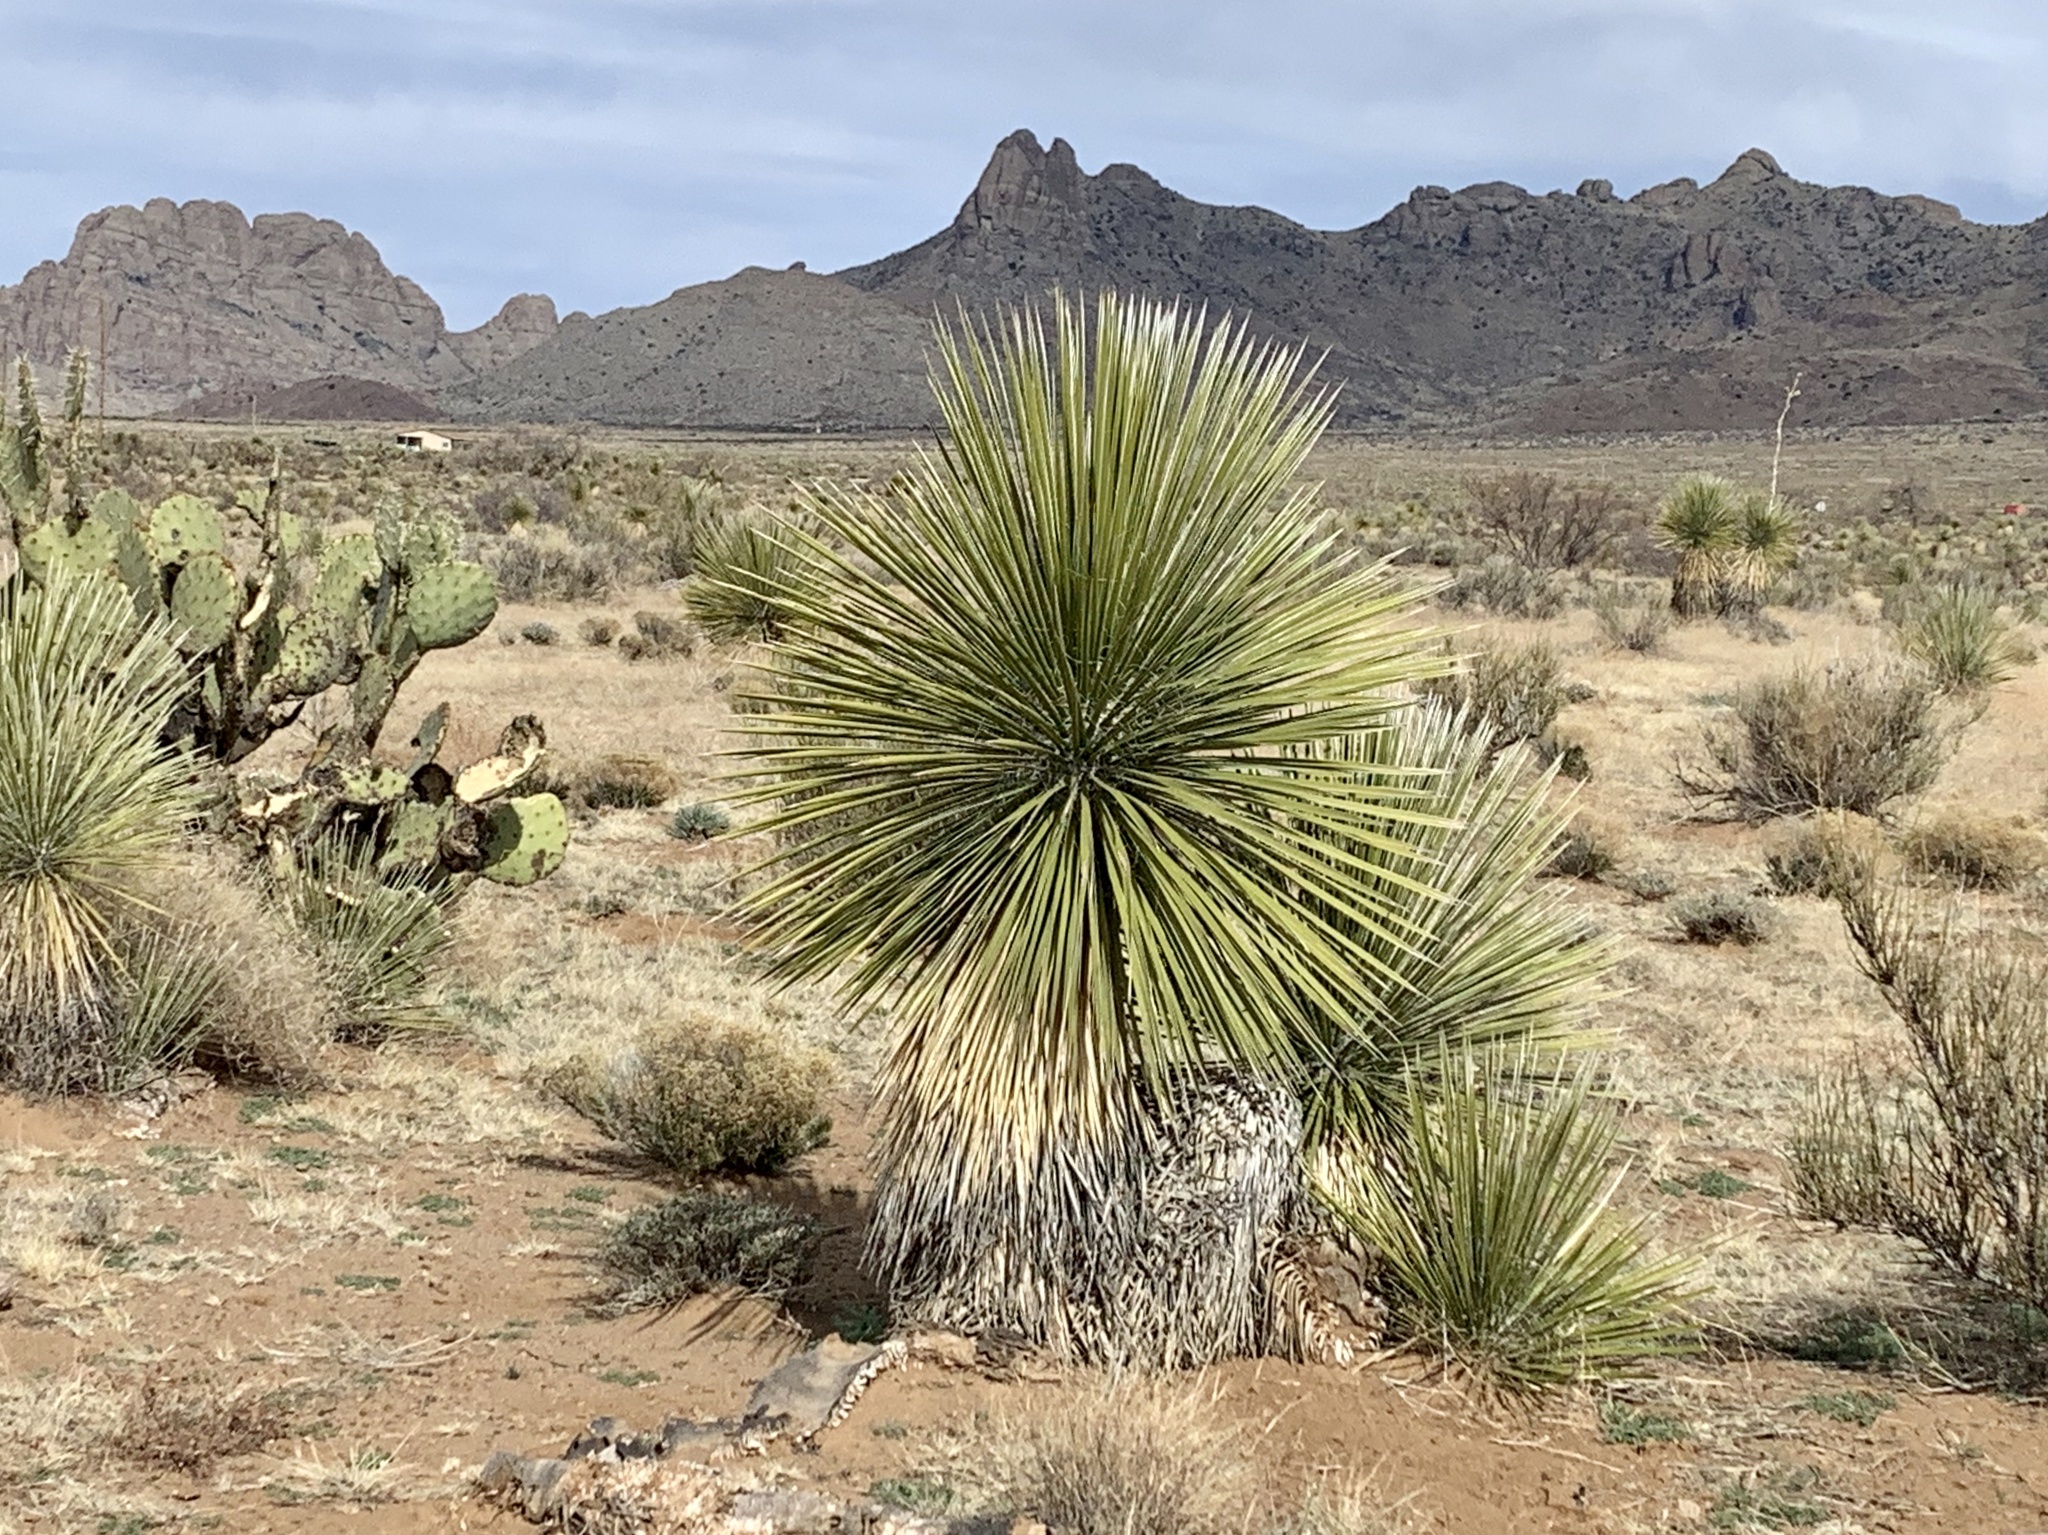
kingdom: Plantae
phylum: Tracheophyta
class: Liliopsida
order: Asparagales
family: Asparagaceae
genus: Yucca
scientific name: Yucca elata
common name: Palmella
